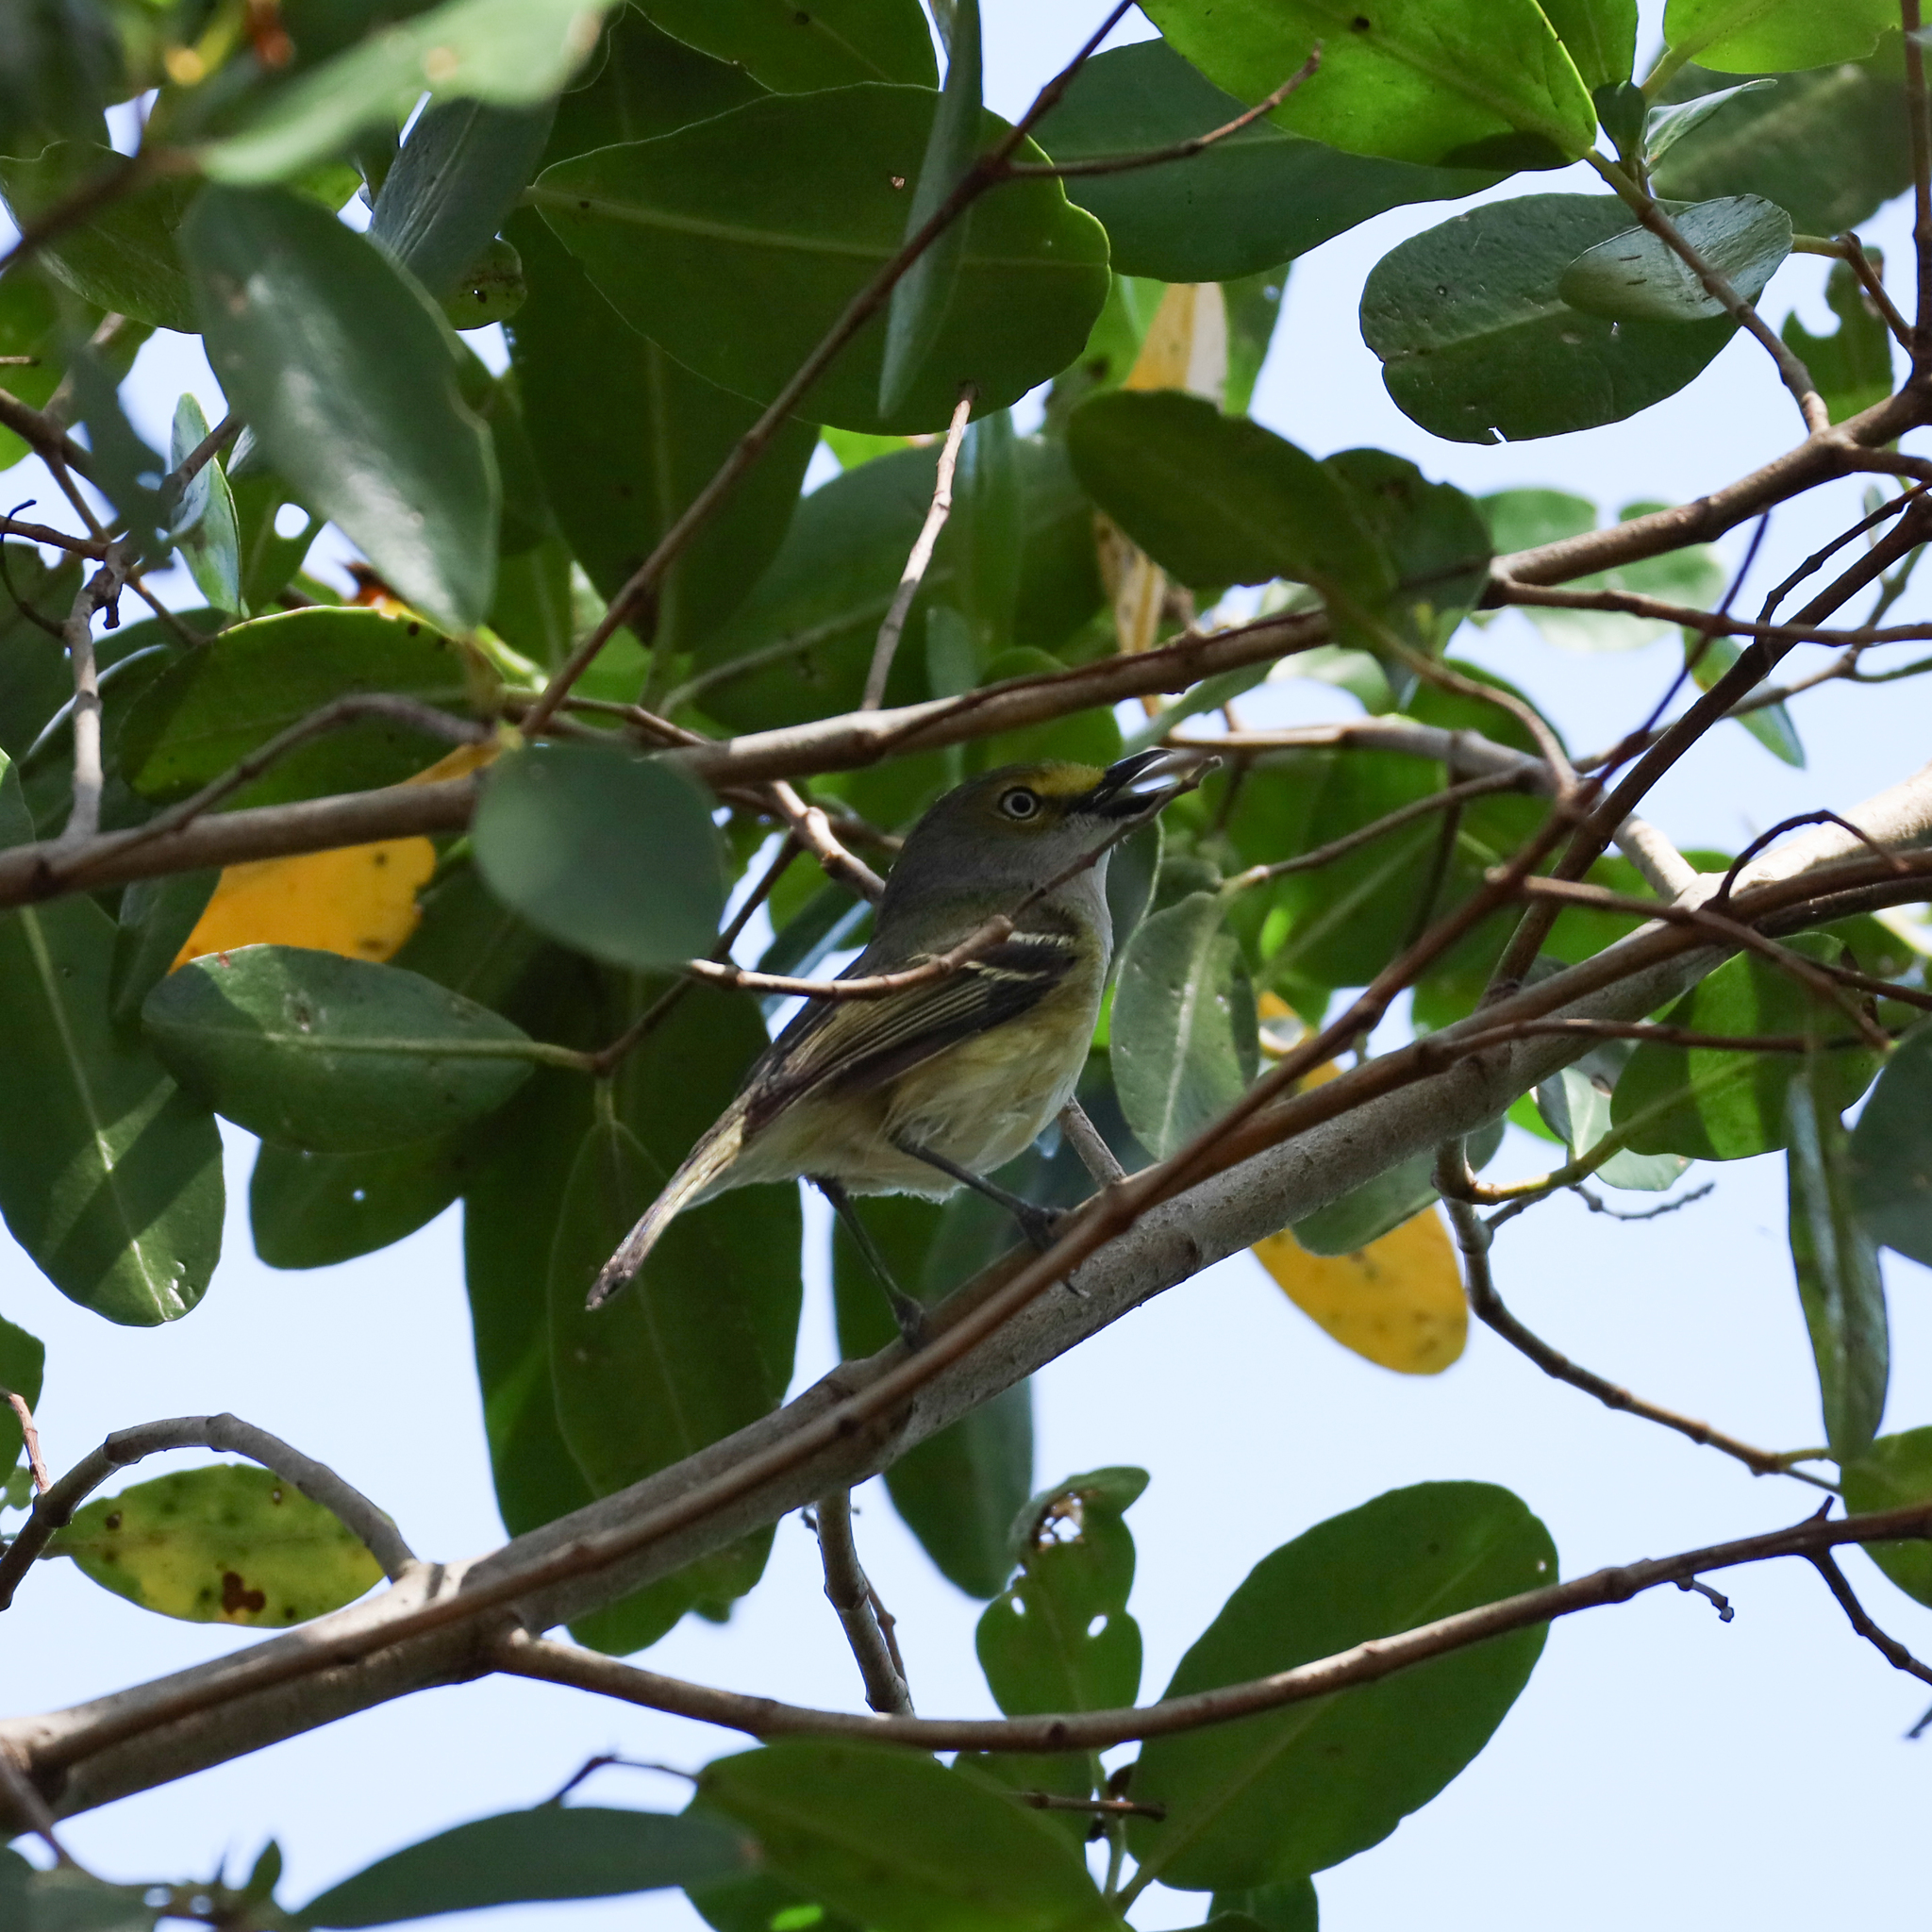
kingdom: Animalia
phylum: Chordata
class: Aves
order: Passeriformes
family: Vireonidae
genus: Vireo
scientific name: Vireo griseus
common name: White-eyed vireo
